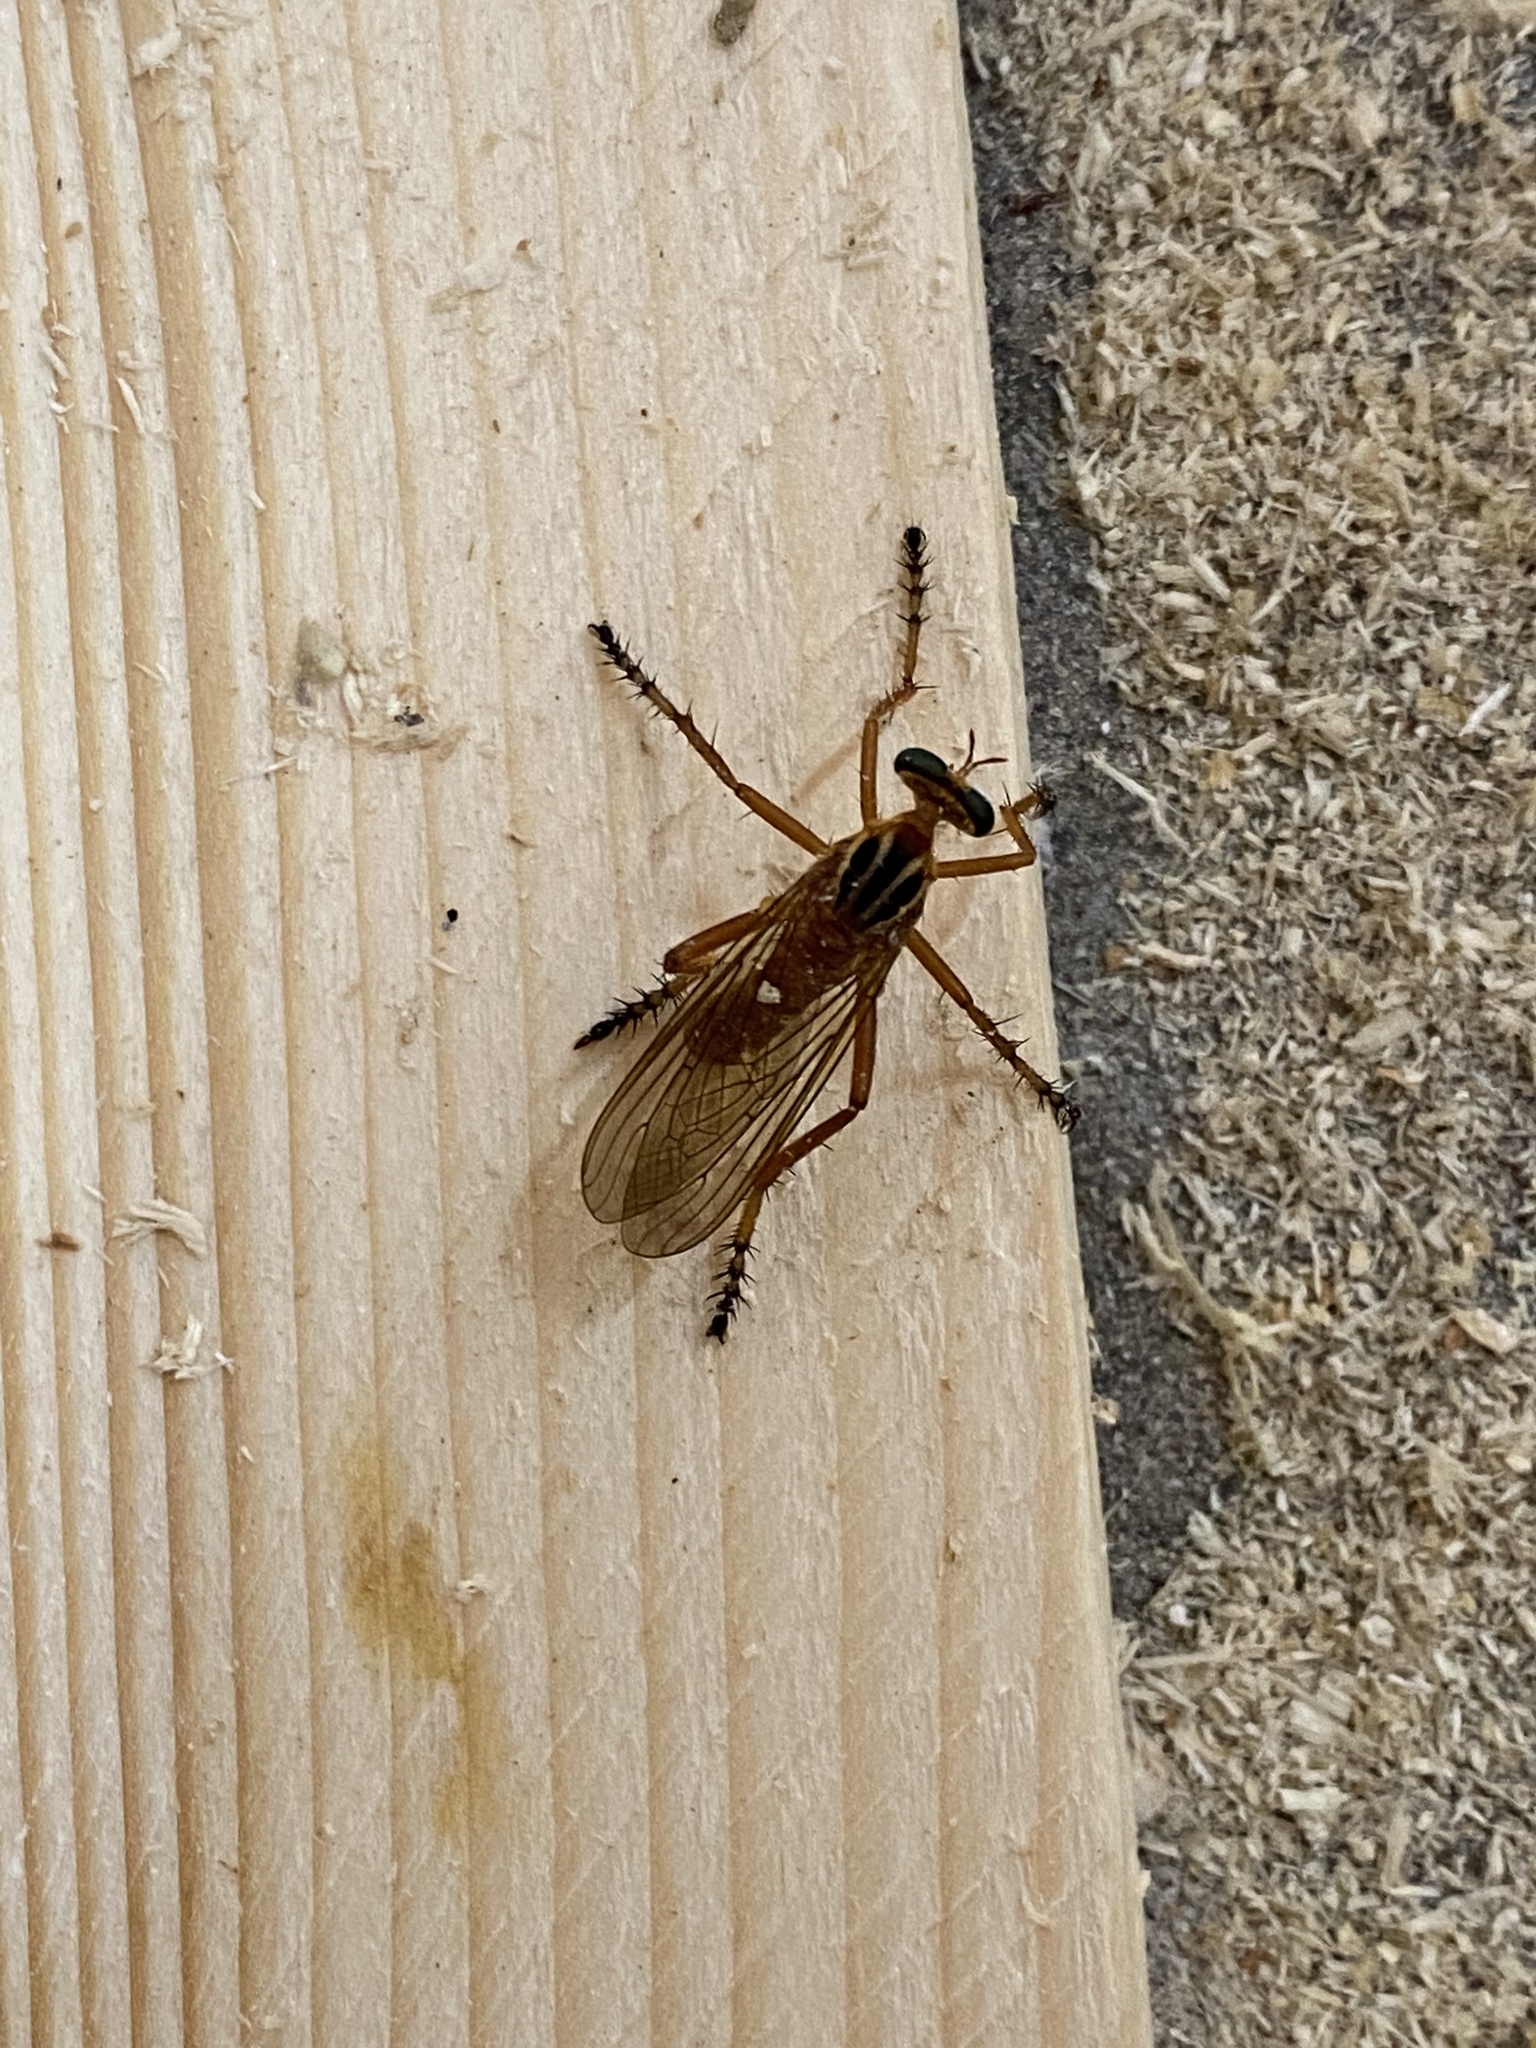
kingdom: Animalia
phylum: Arthropoda
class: Insecta
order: Diptera
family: Asilidae
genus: Diogmites
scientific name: Diogmites neoternatus
